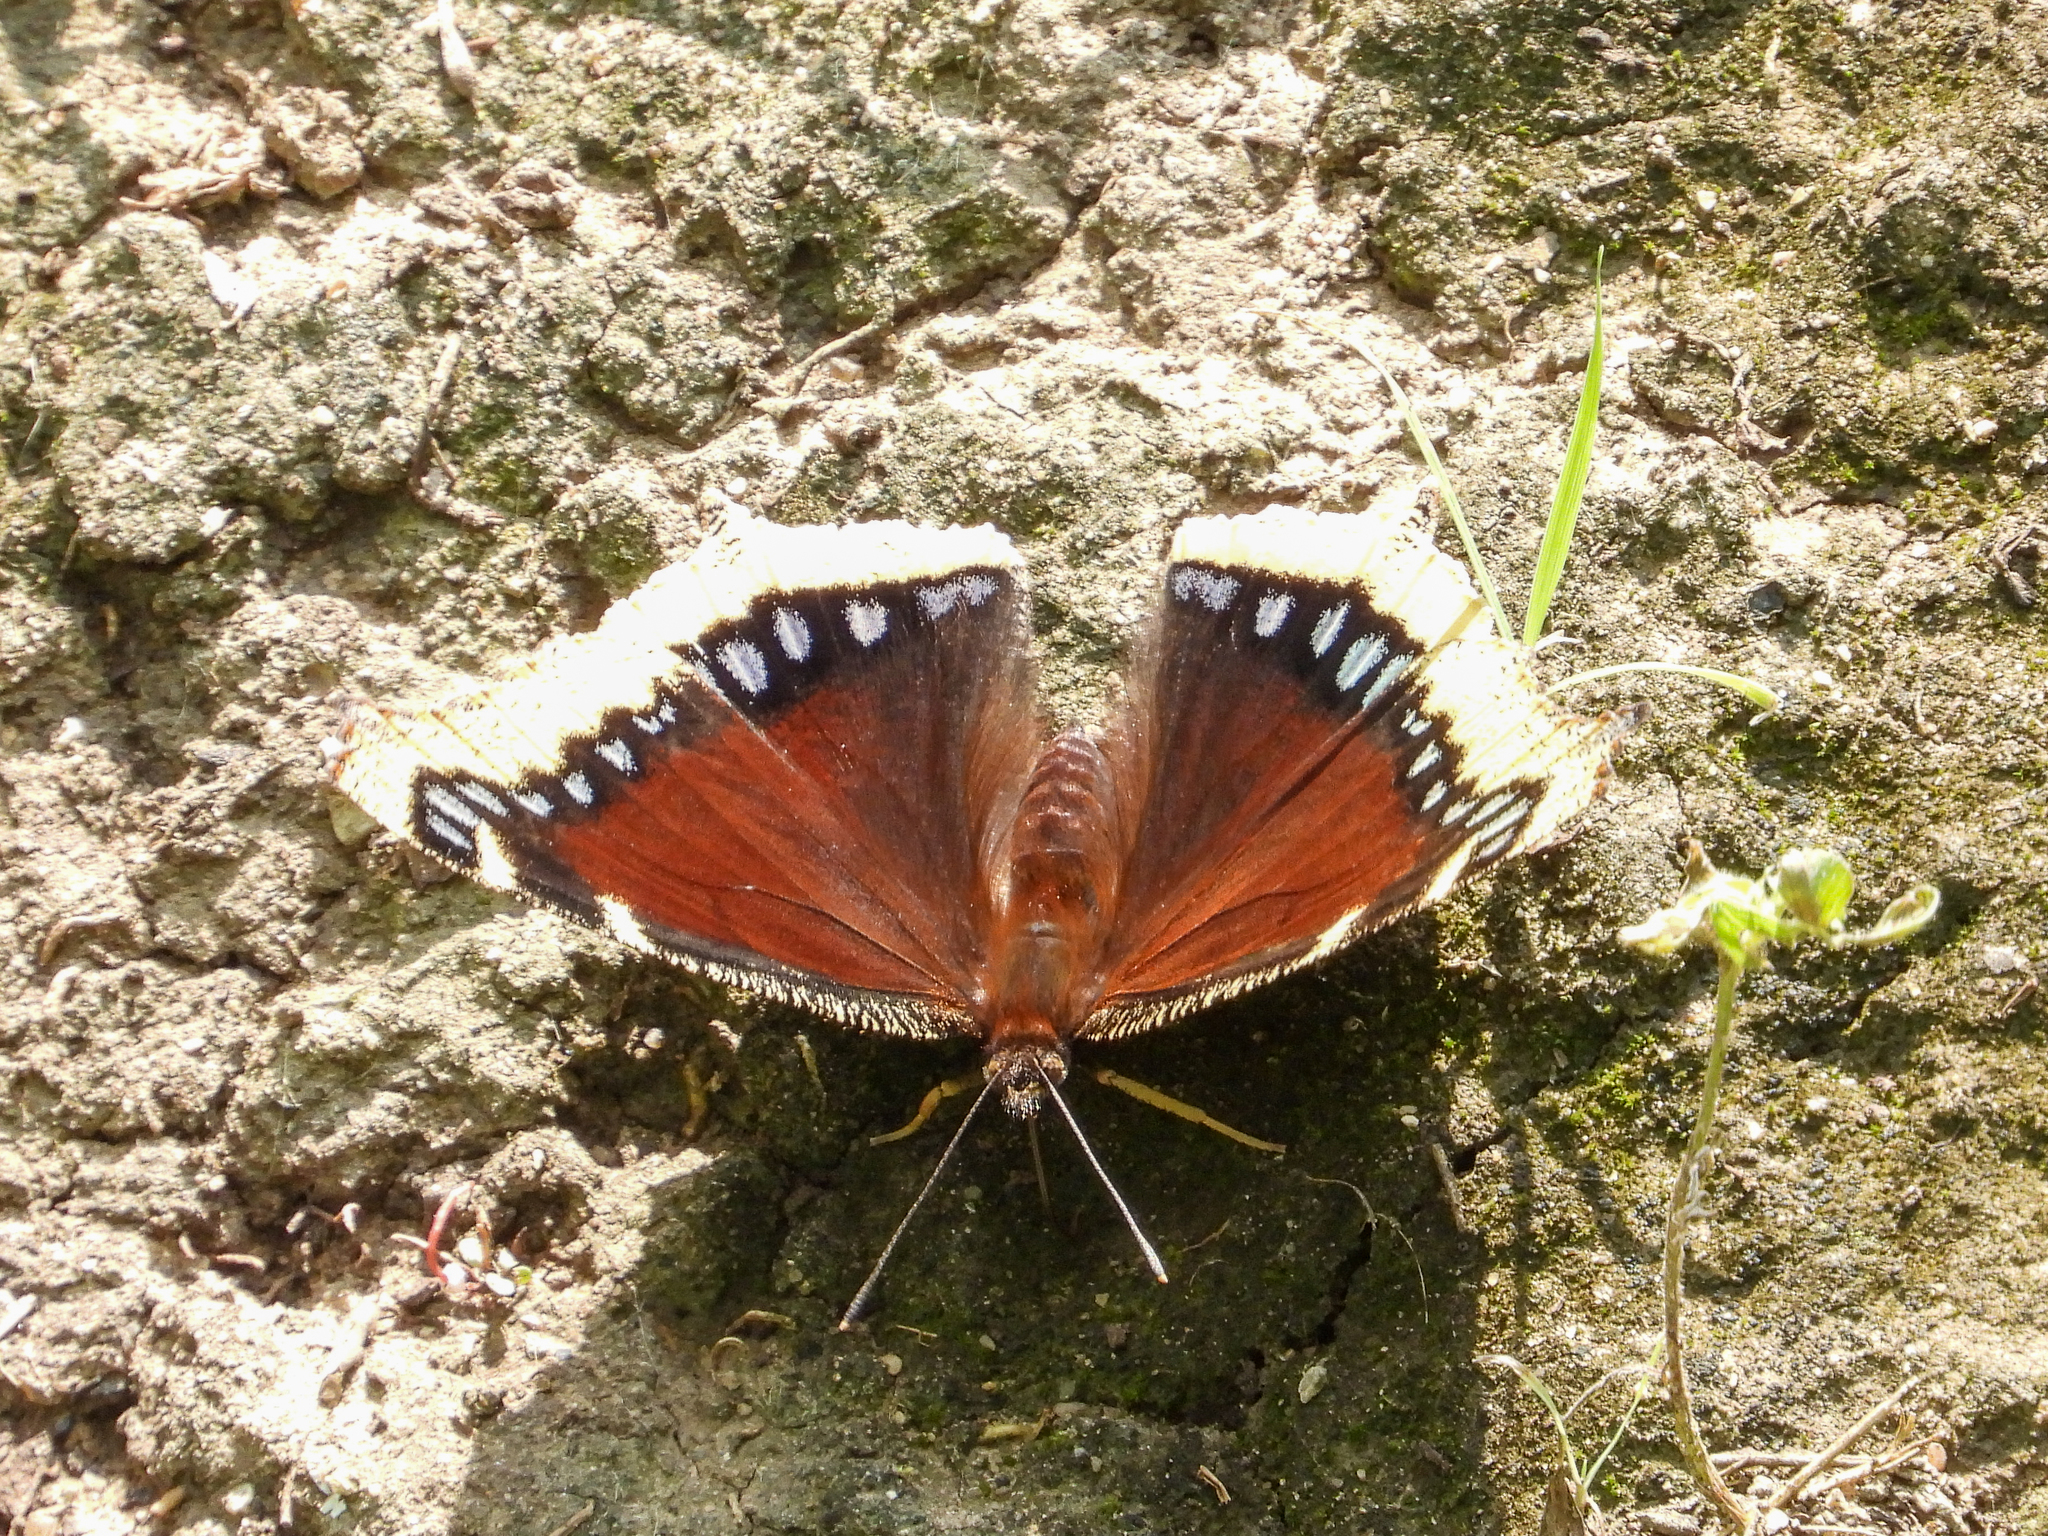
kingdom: Animalia
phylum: Arthropoda
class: Insecta
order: Lepidoptera
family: Nymphalidae
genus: Nymphalis
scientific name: Nymphalis antiopa
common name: Camberwell beauty
